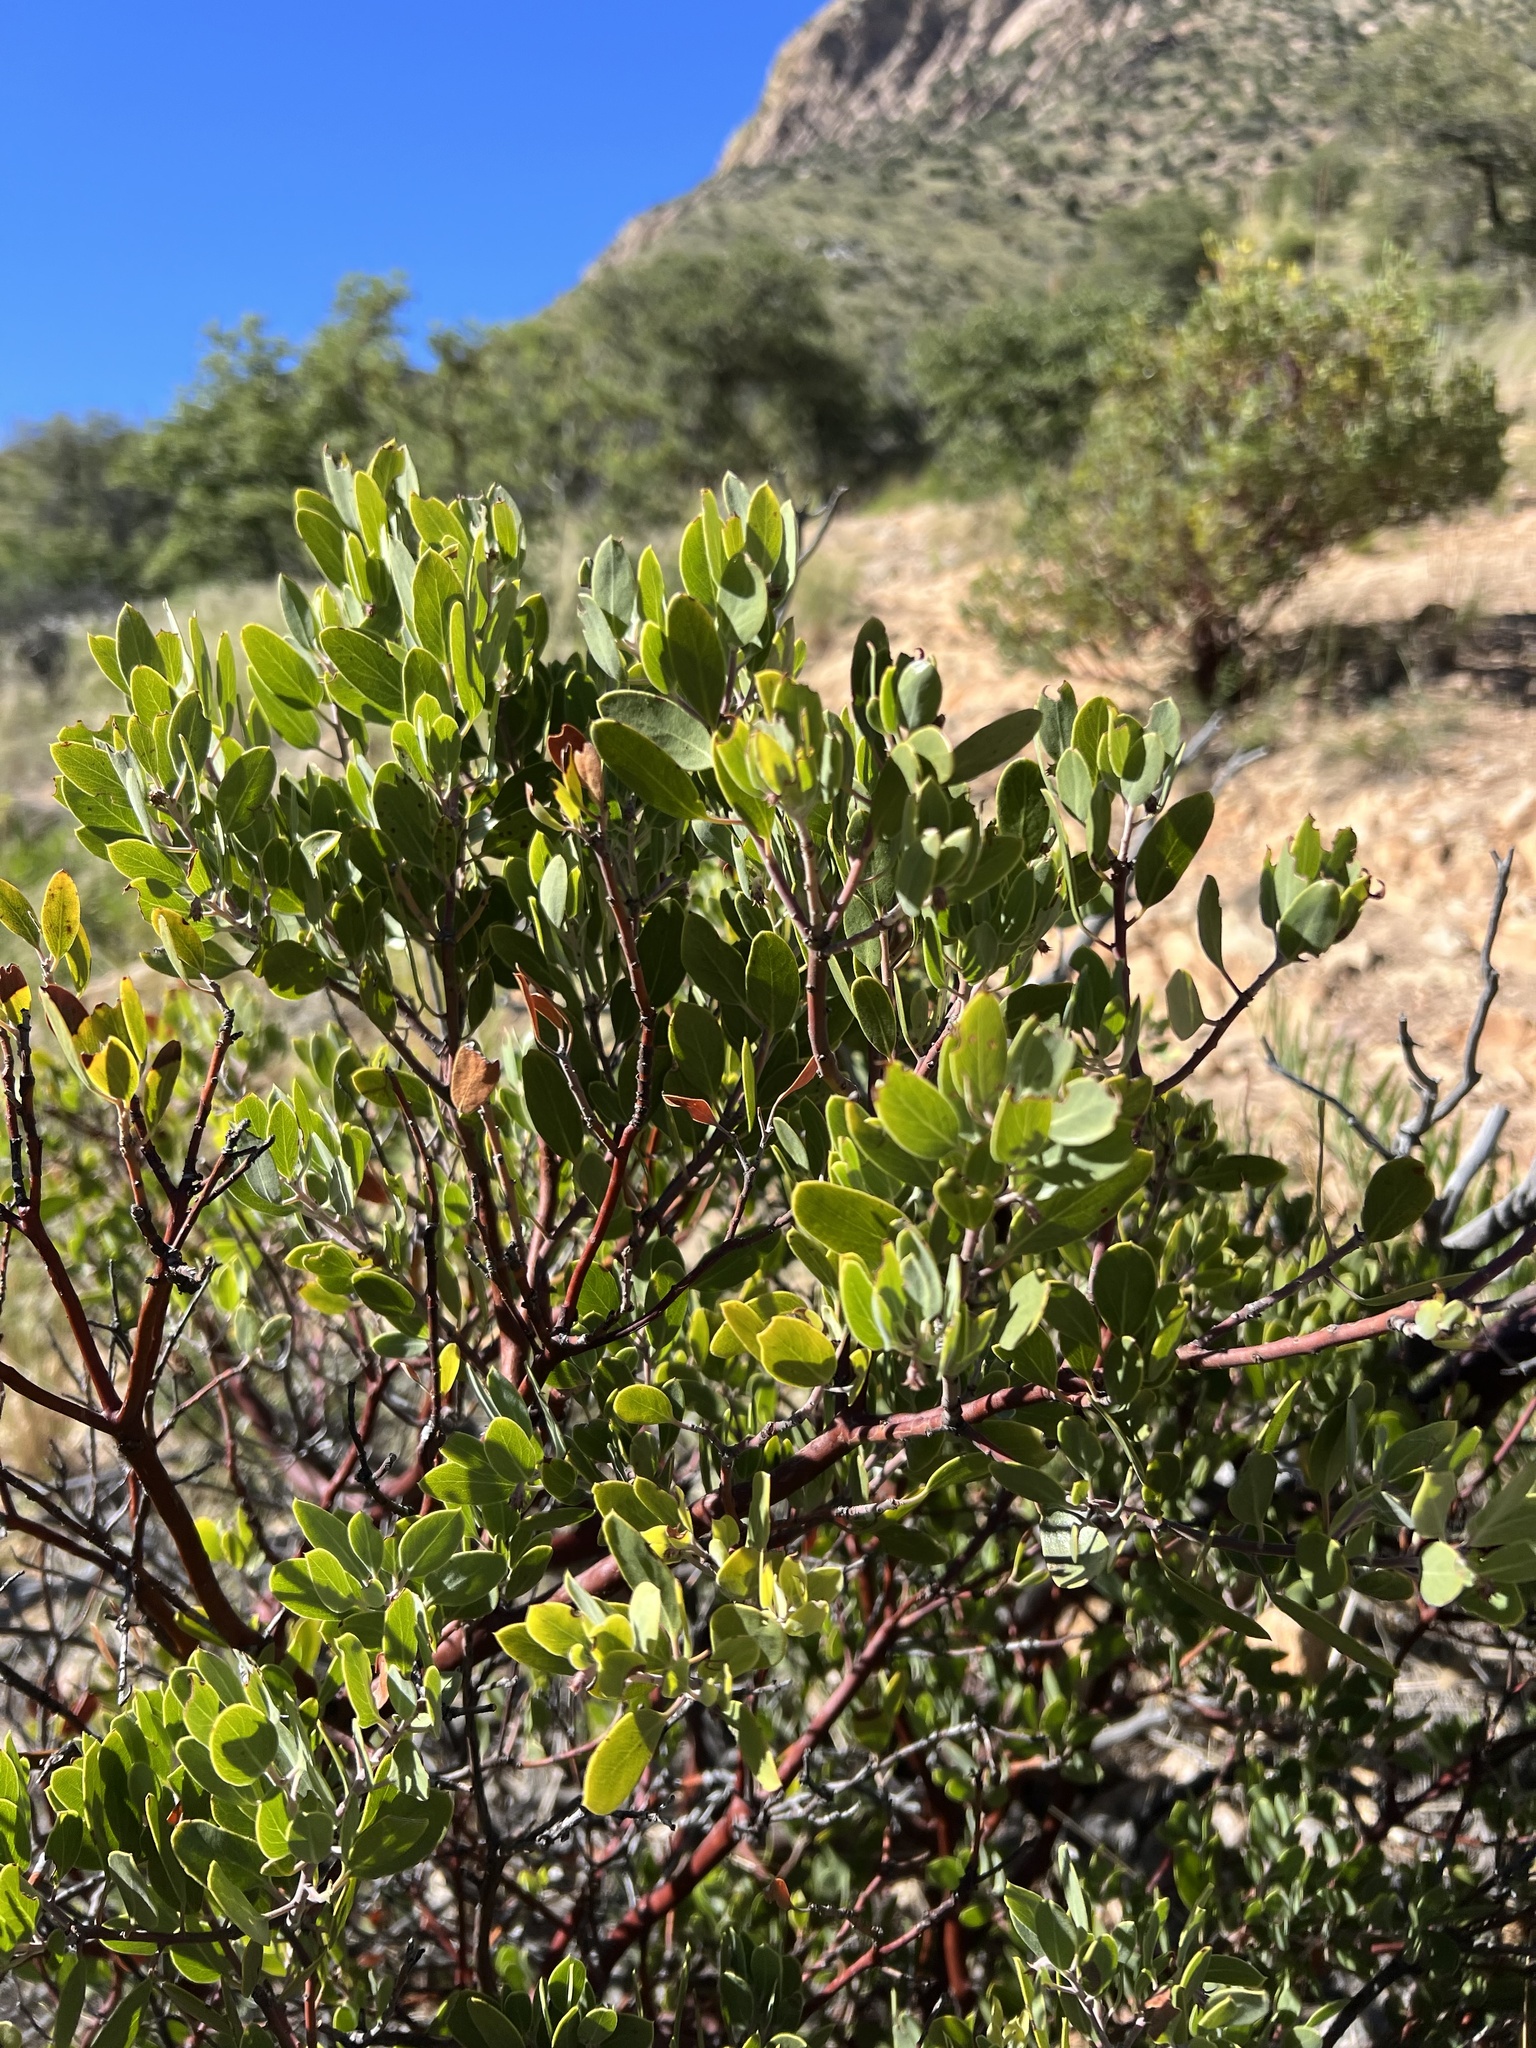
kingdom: Plantae
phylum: Tracheophyta
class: Magnoliopsida
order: Ericales
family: Ericaceae
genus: Arctostaphylos
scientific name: Arctostaphylos pungens
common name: Mexican manzanita
